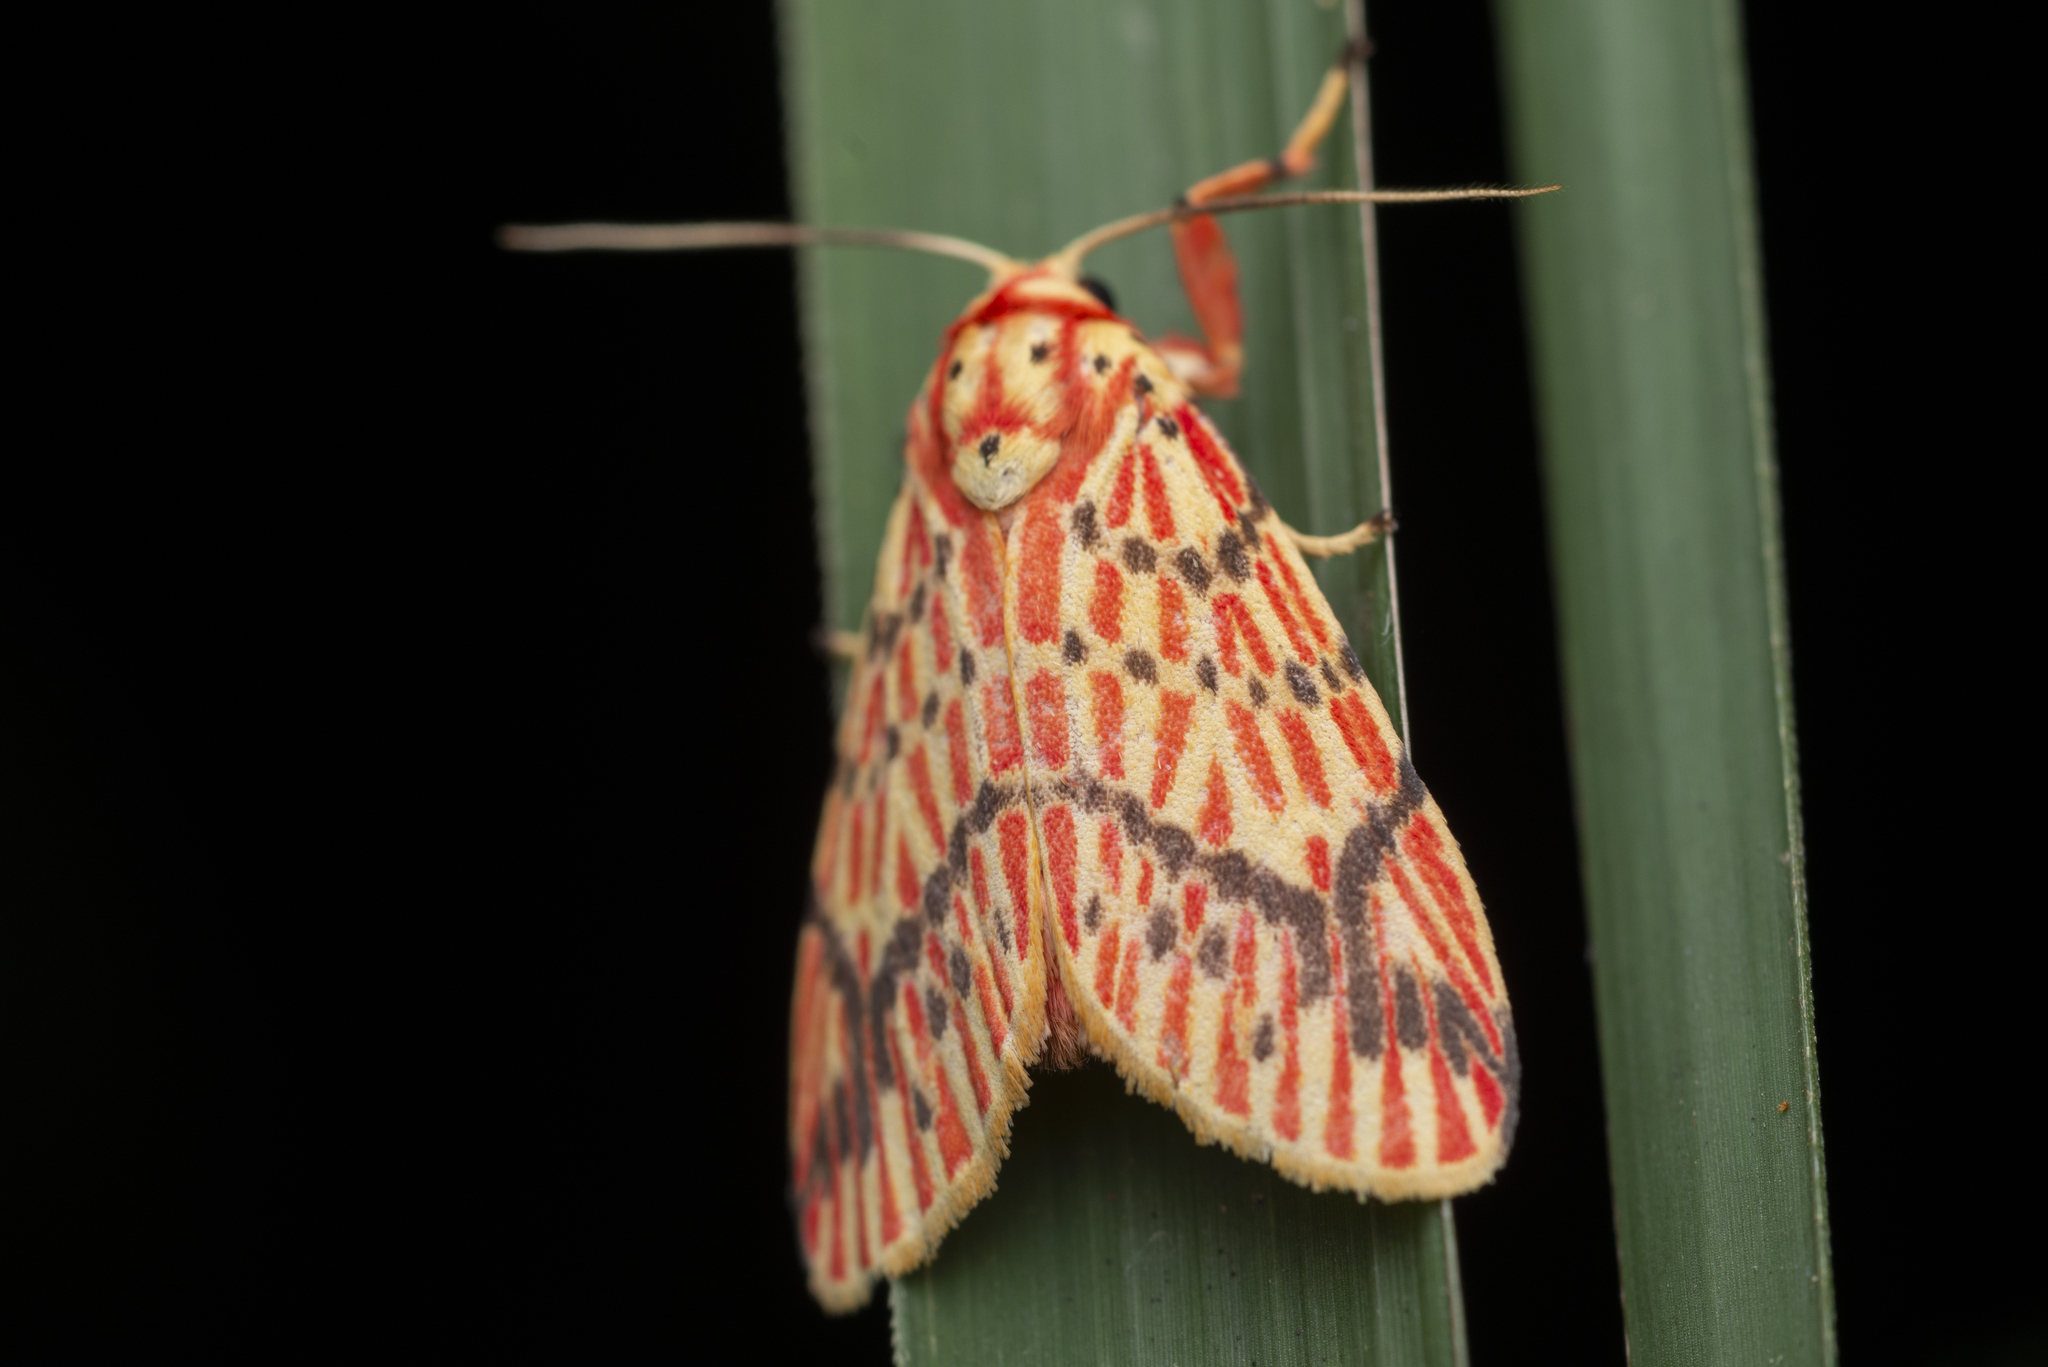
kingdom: Animalia
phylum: Arthropoda
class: Insecta
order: Lepidoptera
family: Erebidae
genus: Barsine
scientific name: Barsine striata
